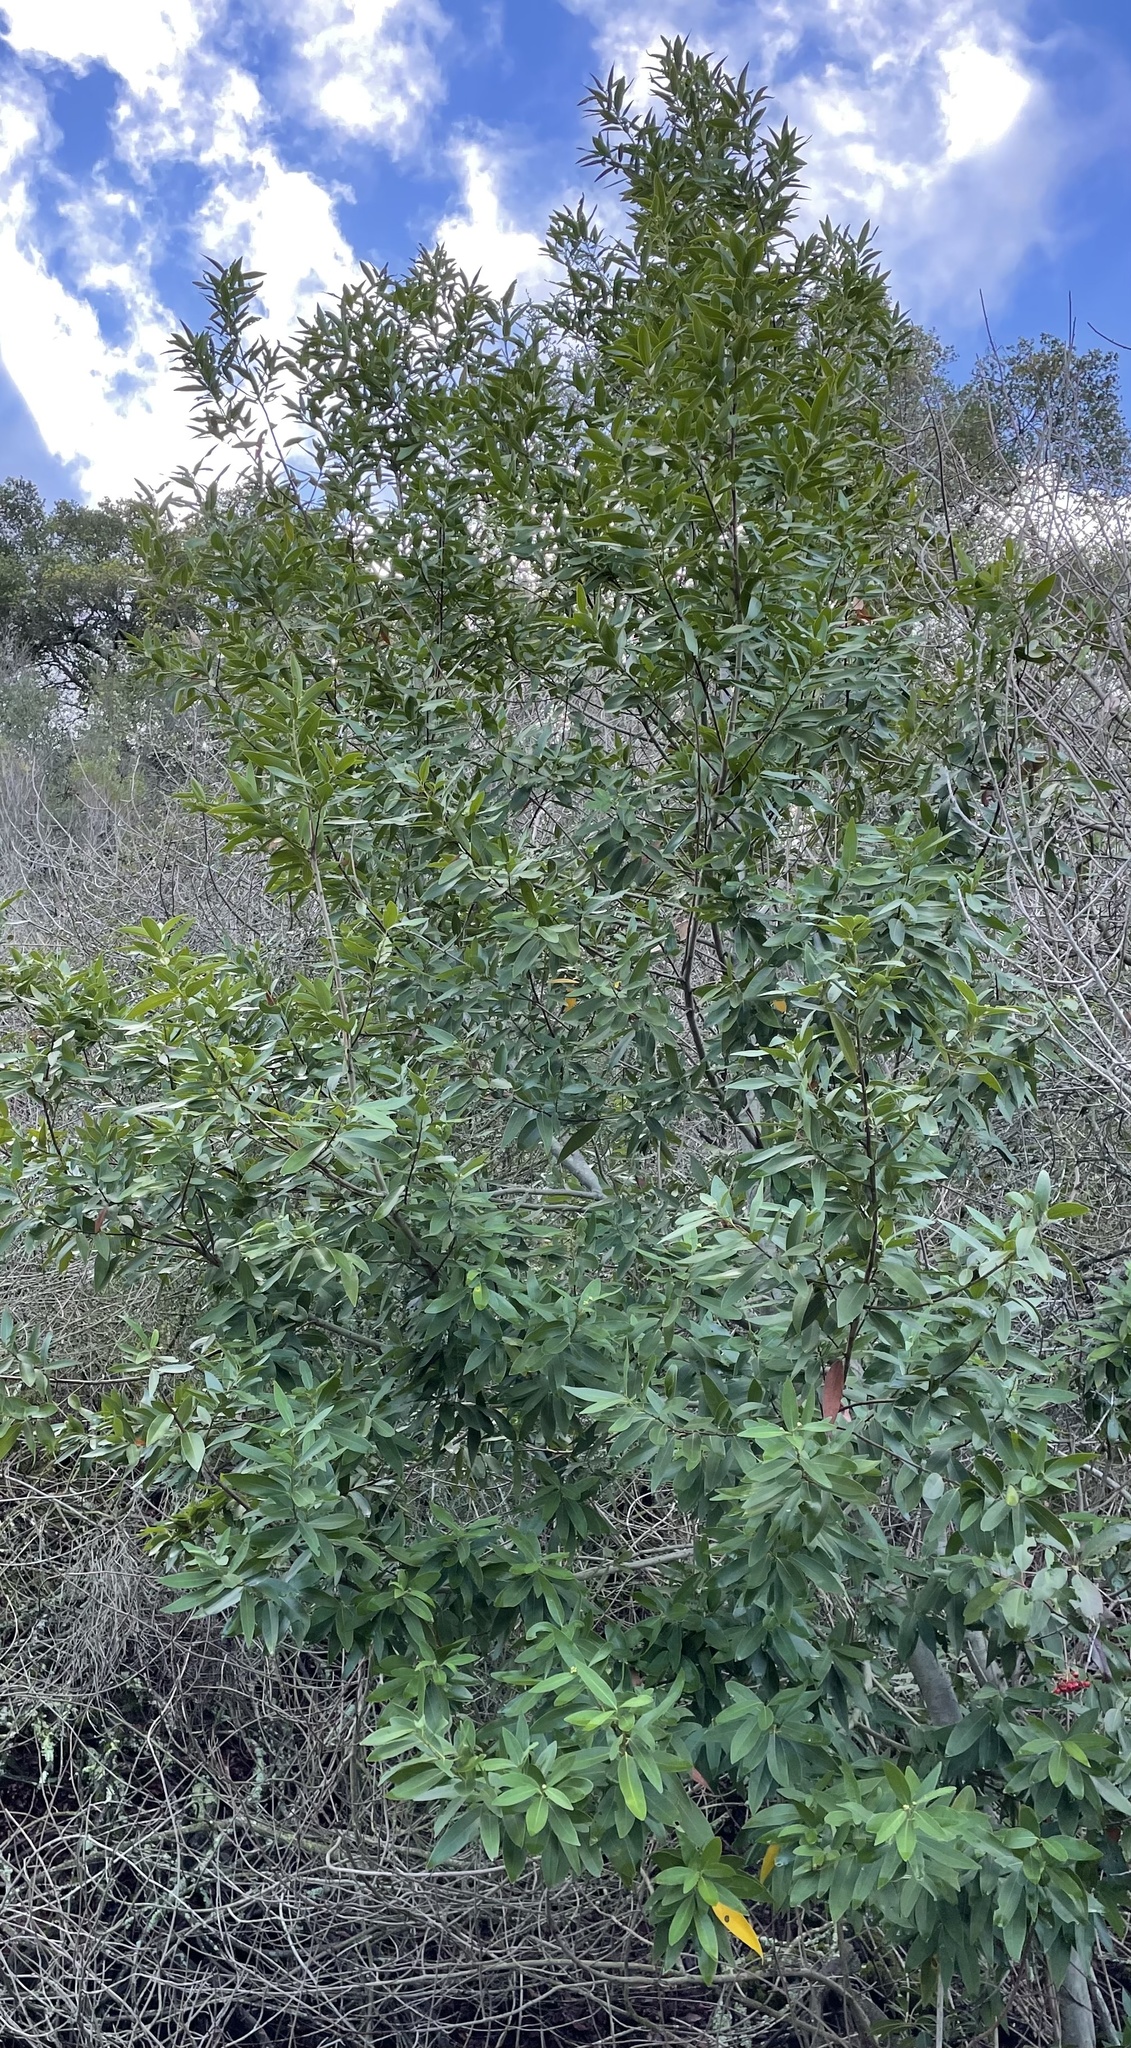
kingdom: Plantae
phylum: Tracheophyta
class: Magnoliopsida
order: Laurales
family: Lauraceae
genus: Umbellularia
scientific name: Umbellularia californica
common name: California bay
